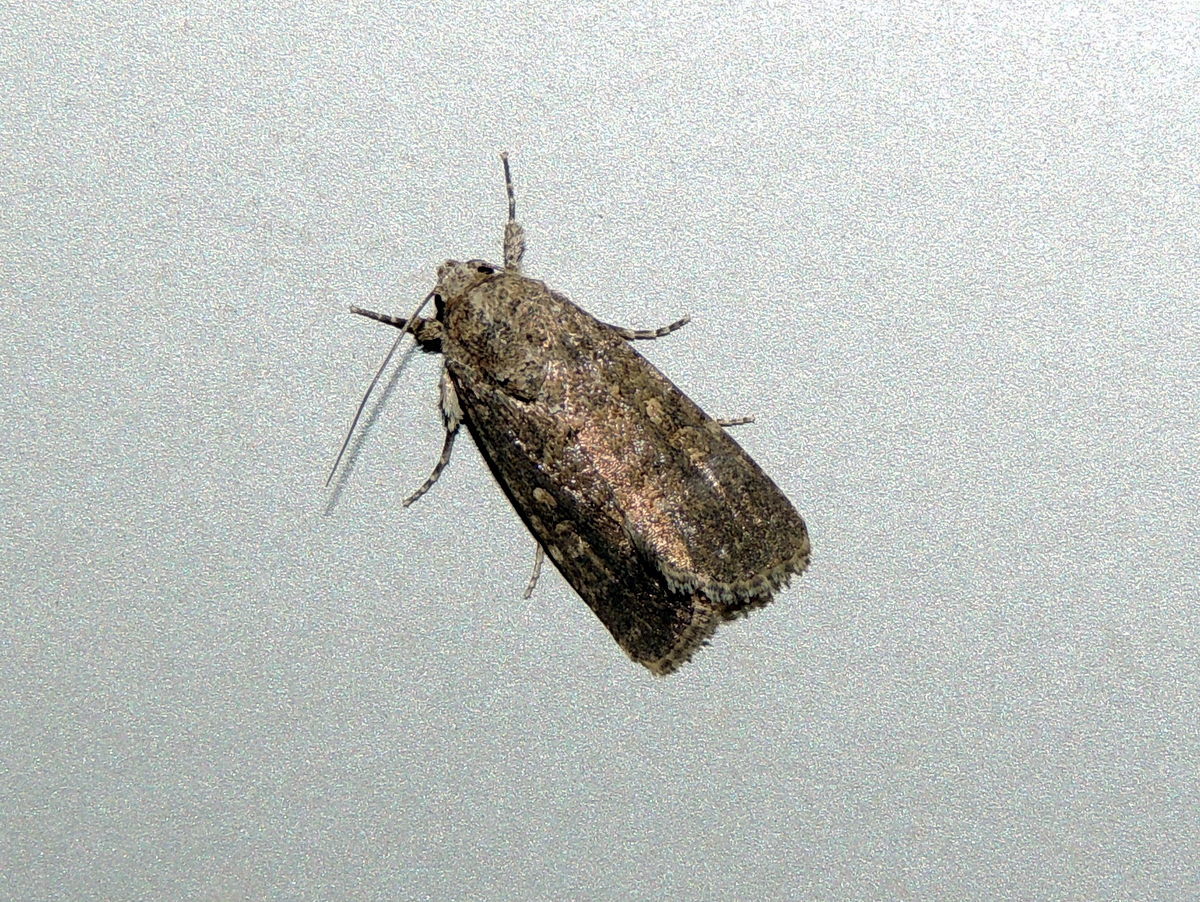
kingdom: Animalia
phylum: Arthropoda
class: Insecta
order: Lepidoptera
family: Noctuidae
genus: Spodoptera
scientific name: Spodoptera exigua
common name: Beet armyworm
